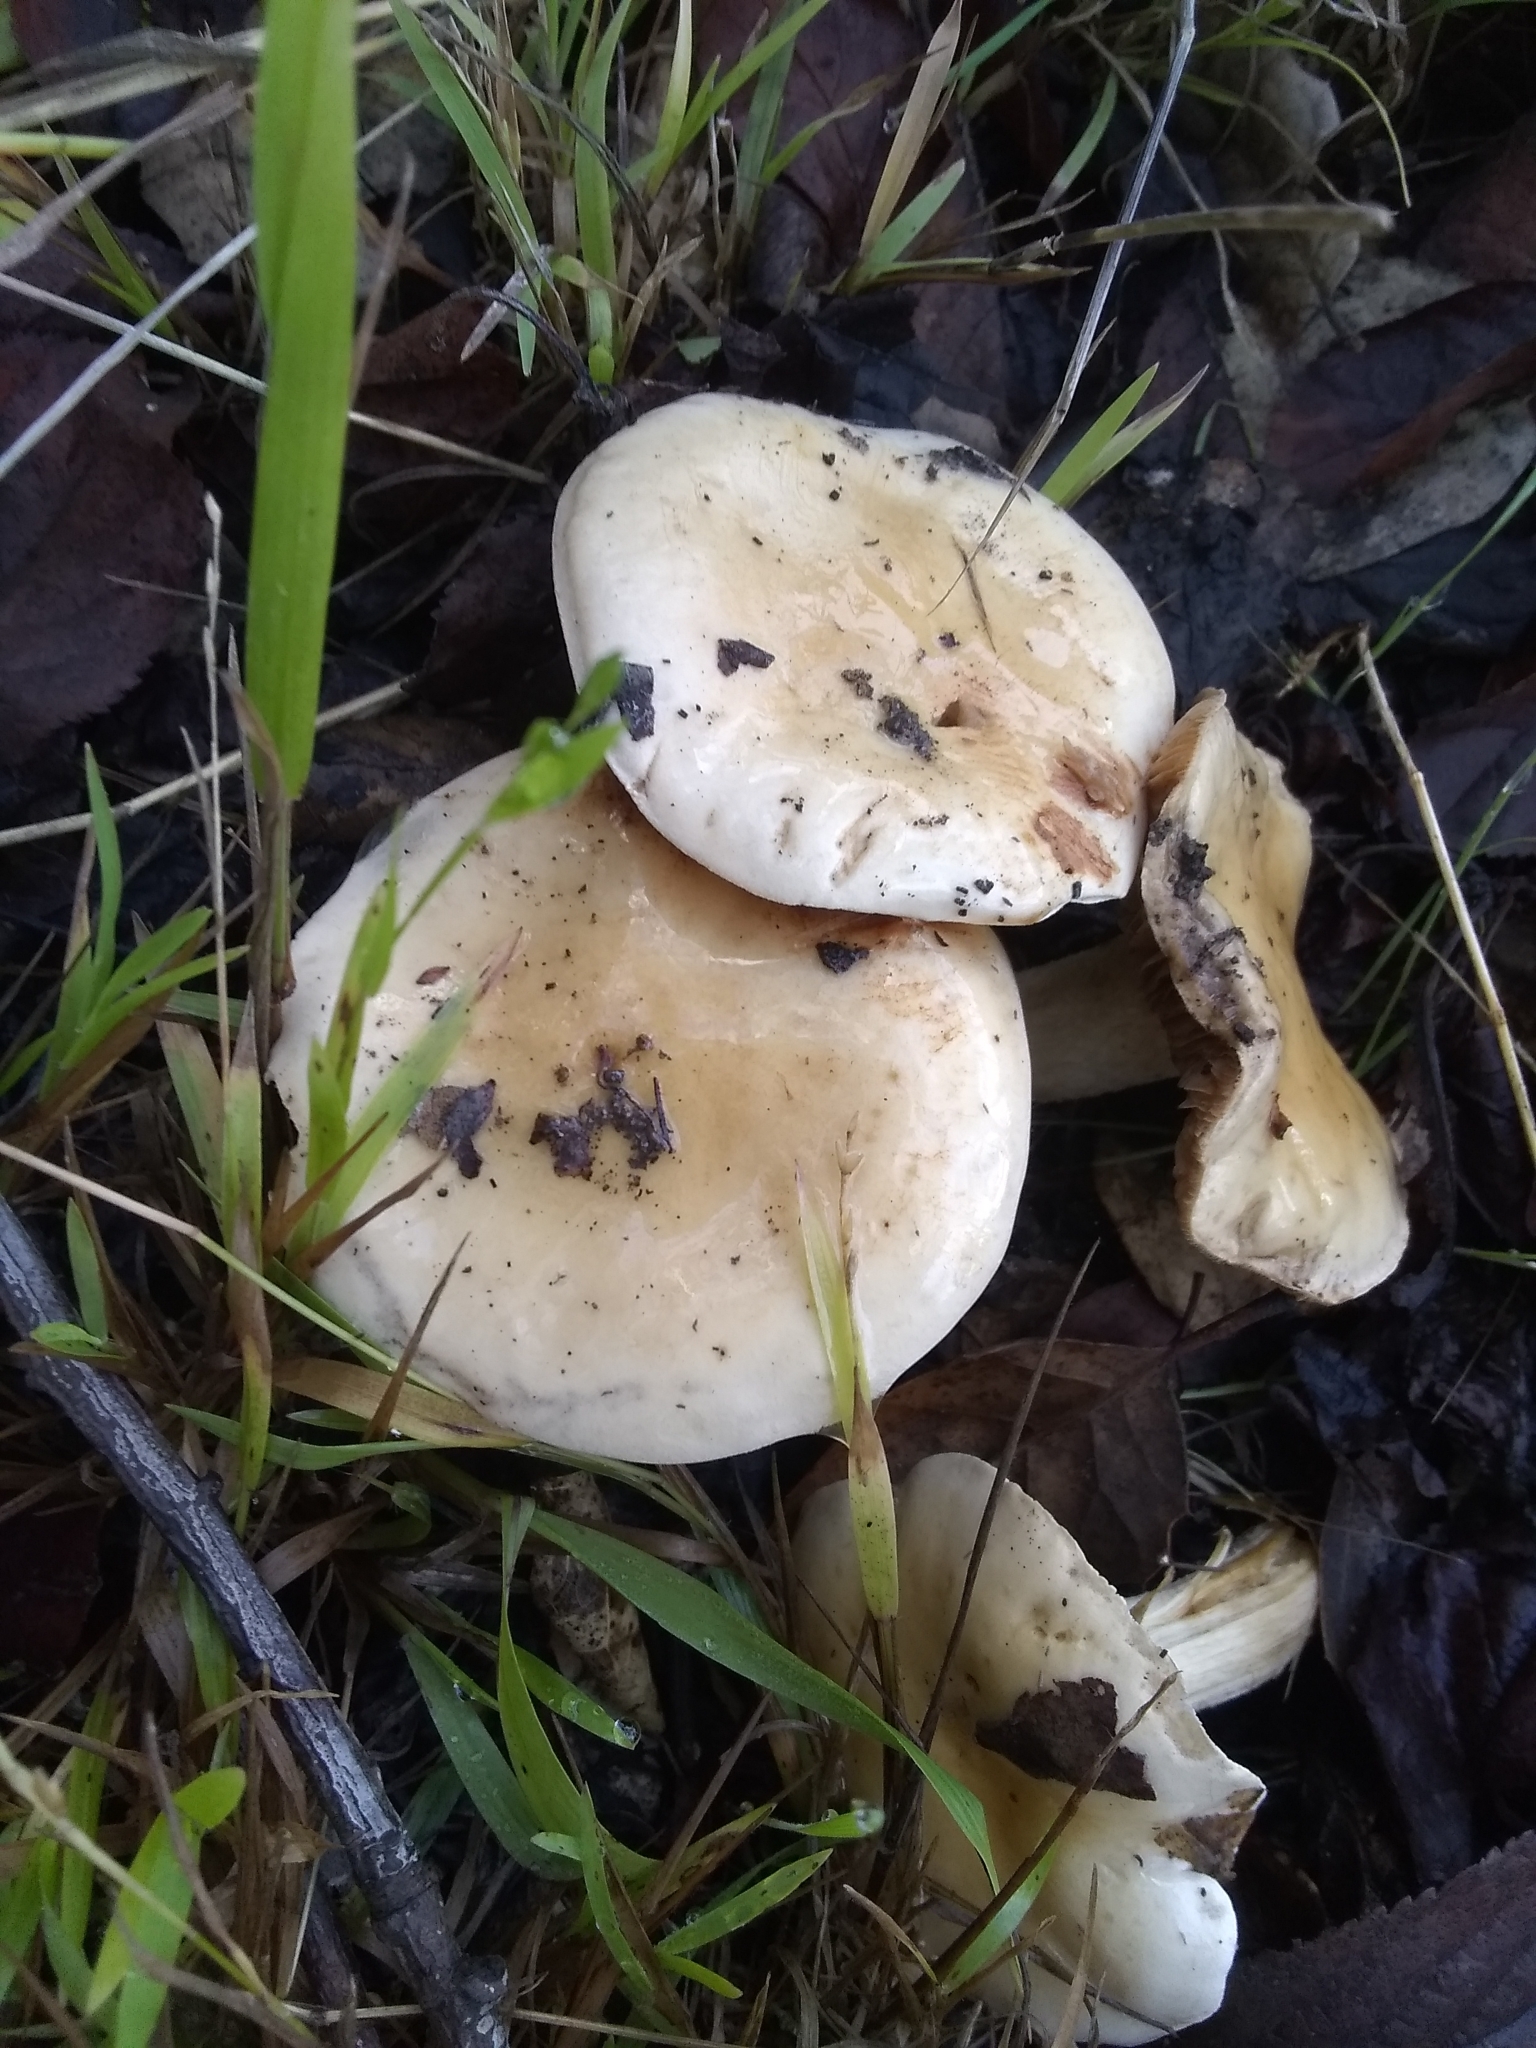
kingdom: Fungi
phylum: Basidiomycota
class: Agaricomycetes
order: Agaricales
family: Hymenogastraceae
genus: Hebeloma
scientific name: Hebeloma leucosarx
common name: Birch poisonpie
